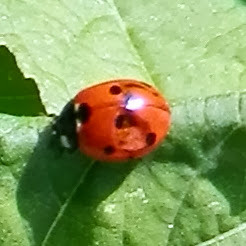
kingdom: Animalia
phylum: Arthropoda
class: Insecta
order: Coleoptera
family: Coccinellidae
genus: Coccinella
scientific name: Coccinella septempunctata
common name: Sevenspotted lady beetle
